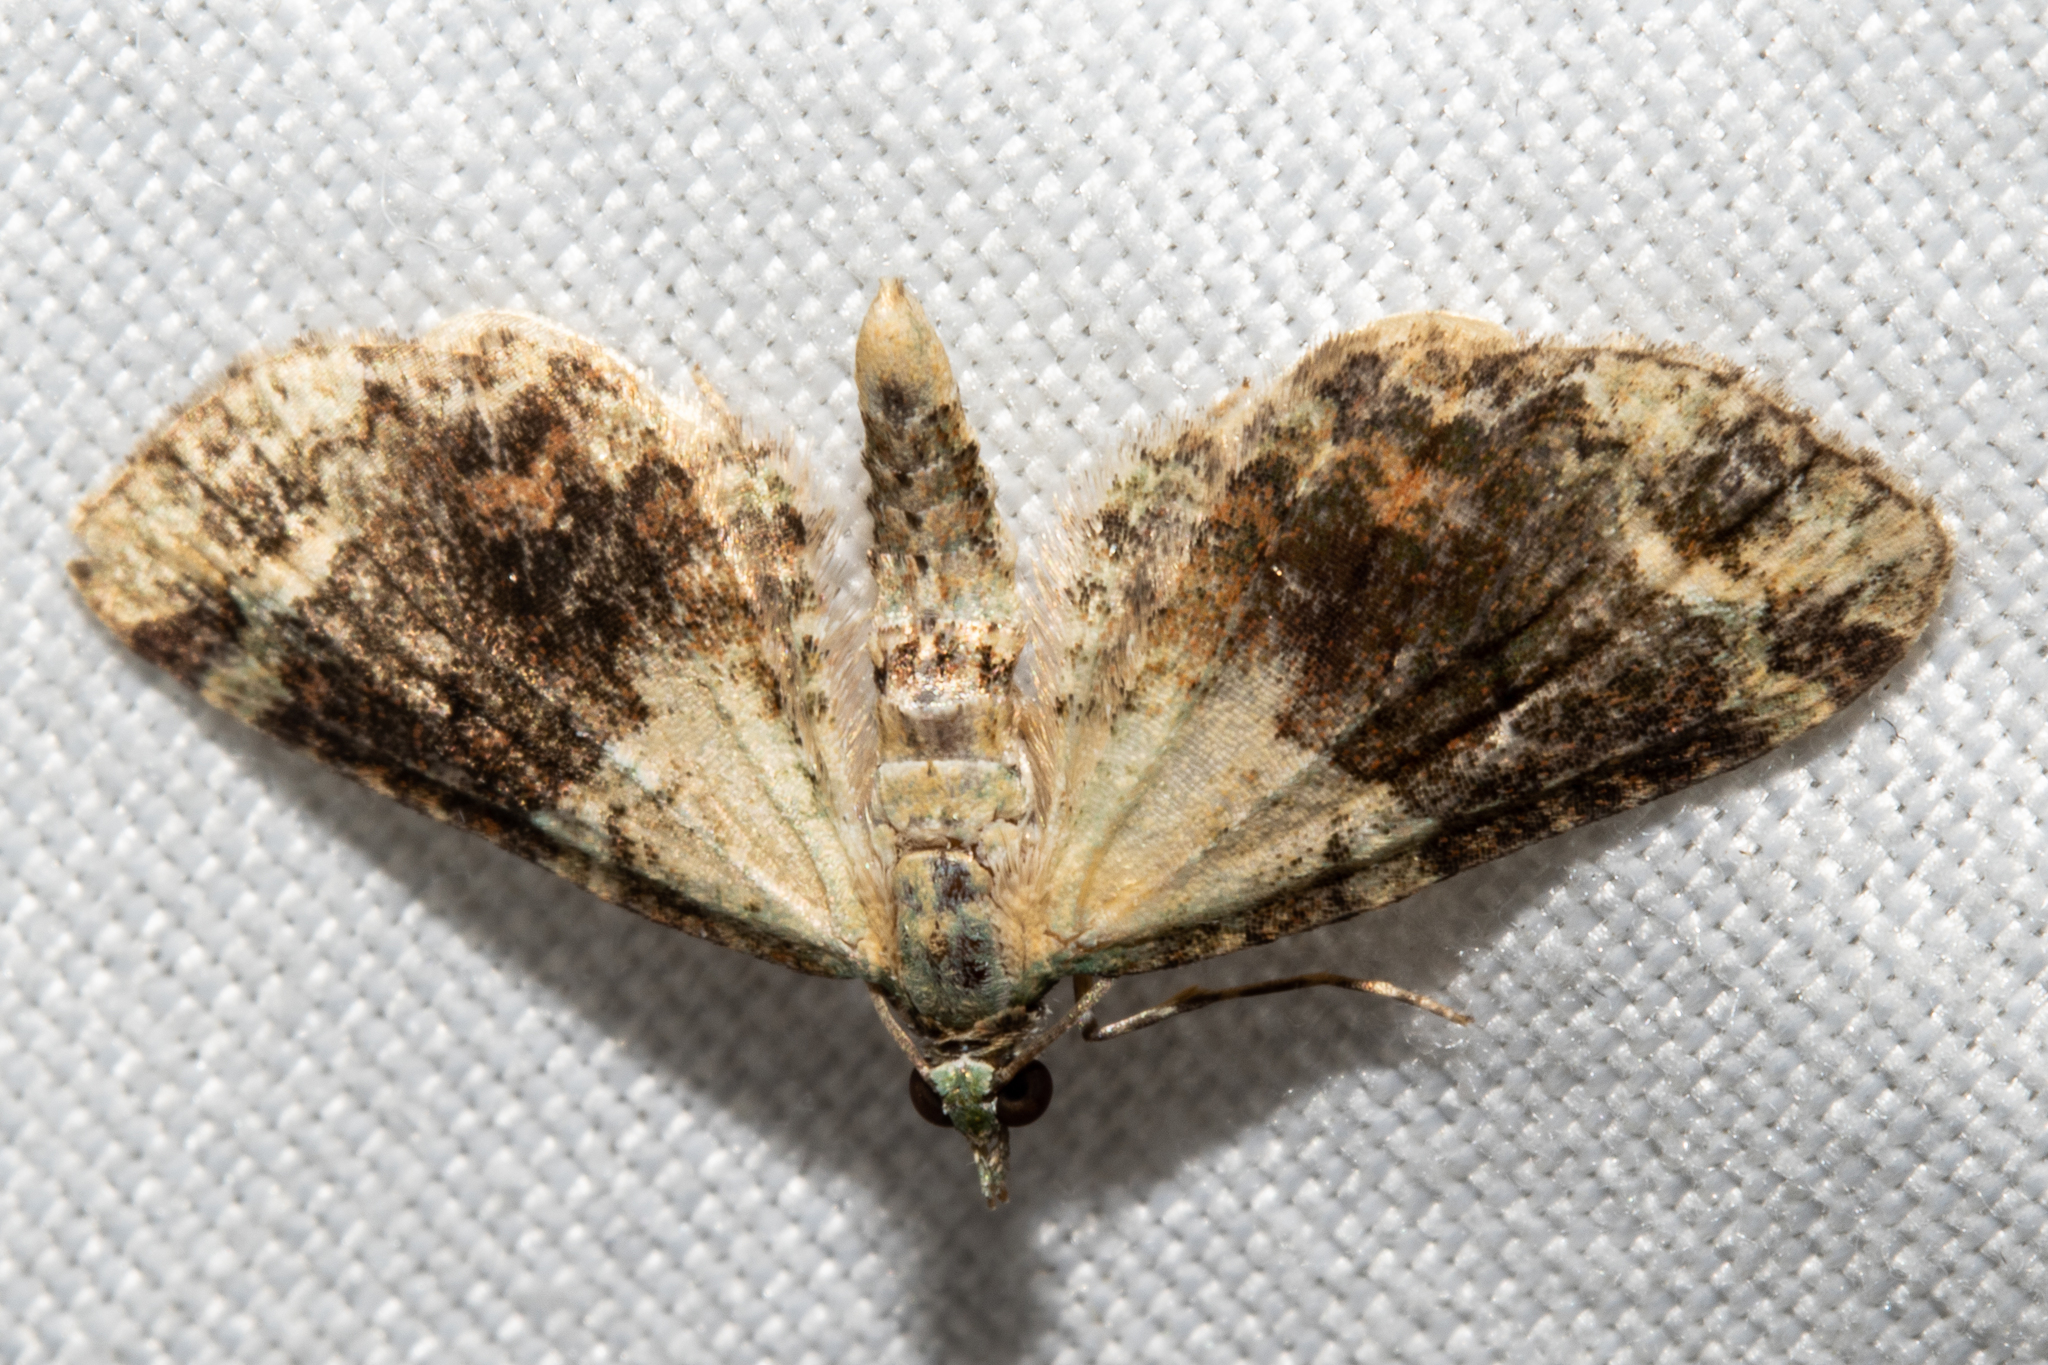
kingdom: Animalia
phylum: Arthropoda
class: Insecta
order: Lepidoptera
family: Geometridae
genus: Idaea
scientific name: Idaea mutanda
